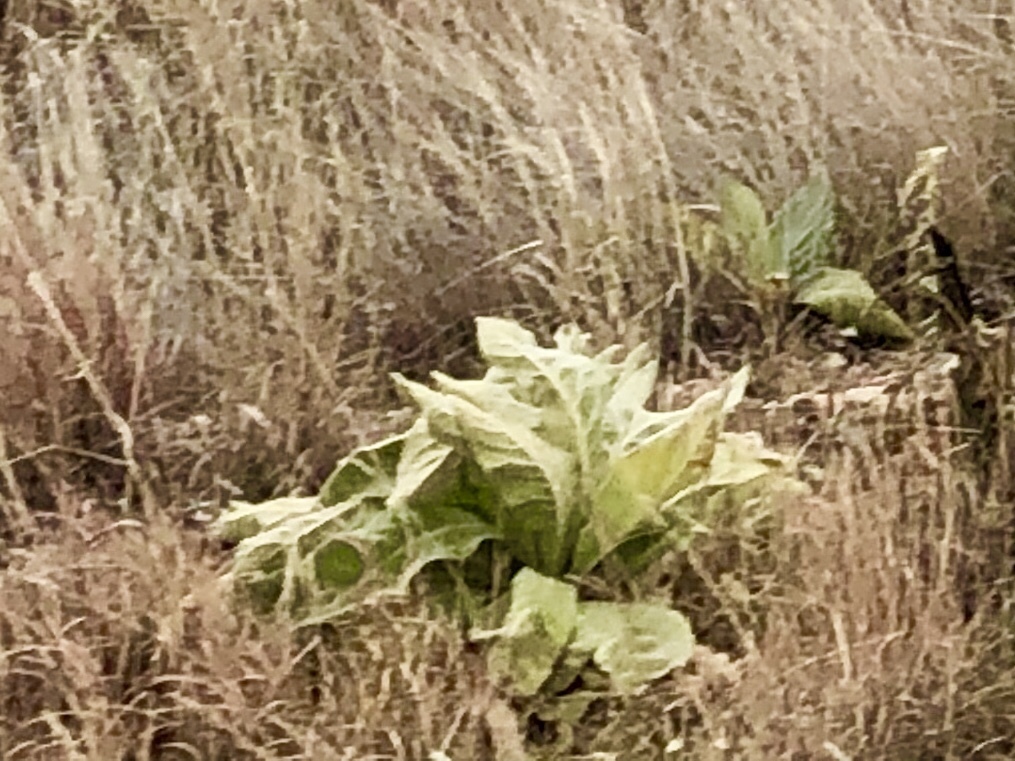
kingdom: Plantae
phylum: Tracheophyta
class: Magnoliopsida
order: Lamiales
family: Scrophulariaceae
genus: Verbascum
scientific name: Verbascum thapsus
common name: Common mullein
